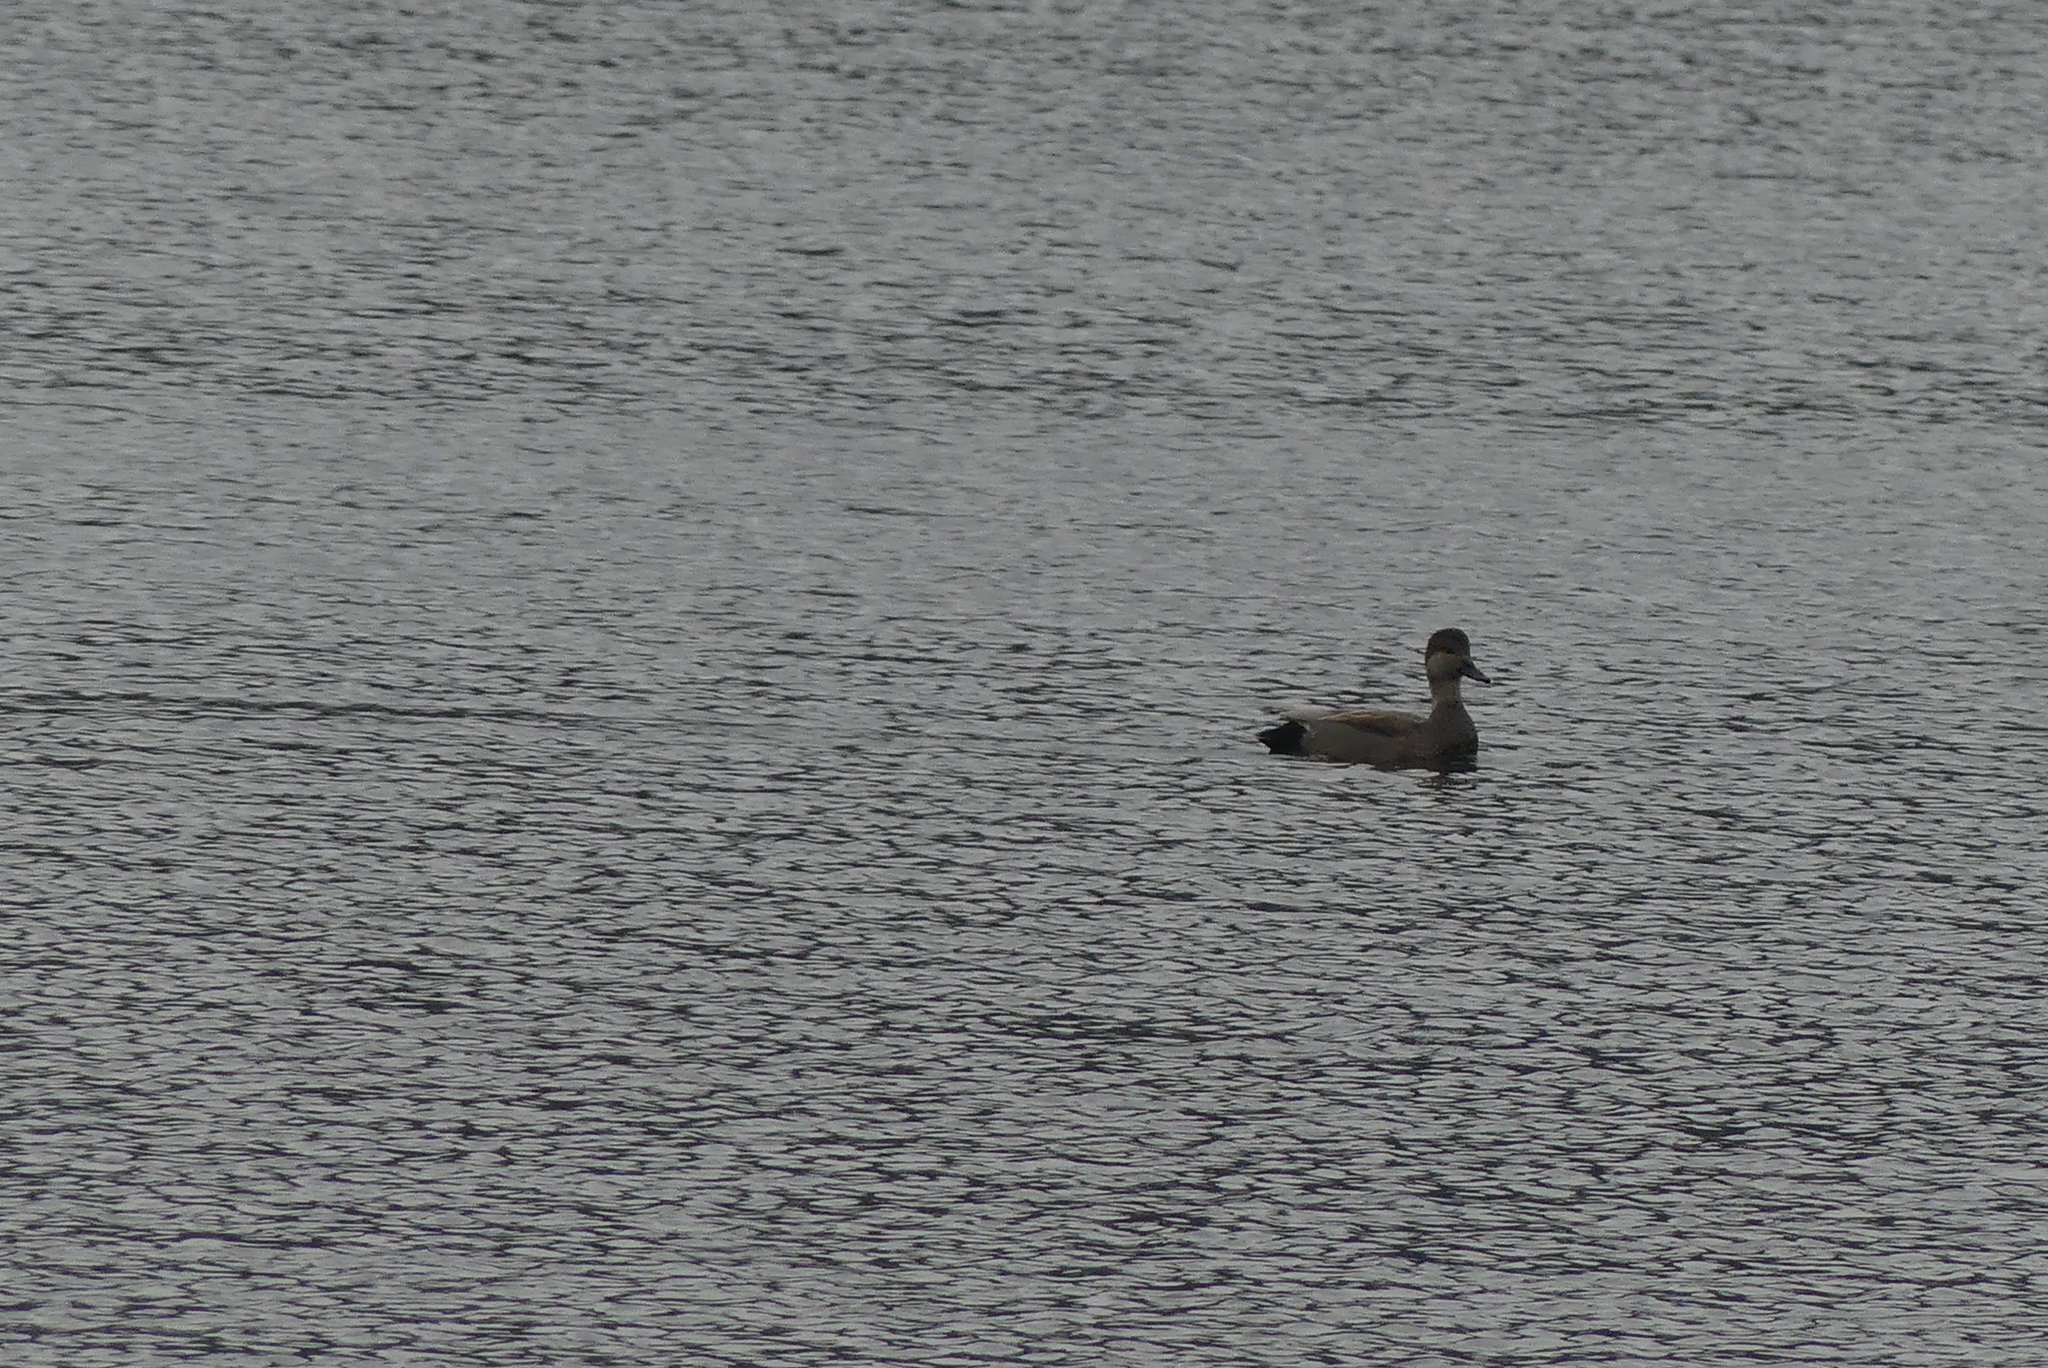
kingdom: Animalia
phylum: Chordata
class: Aves
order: Anseriformes
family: Anatidae
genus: Mareca
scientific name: Mareca strepera
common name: Gadwall
